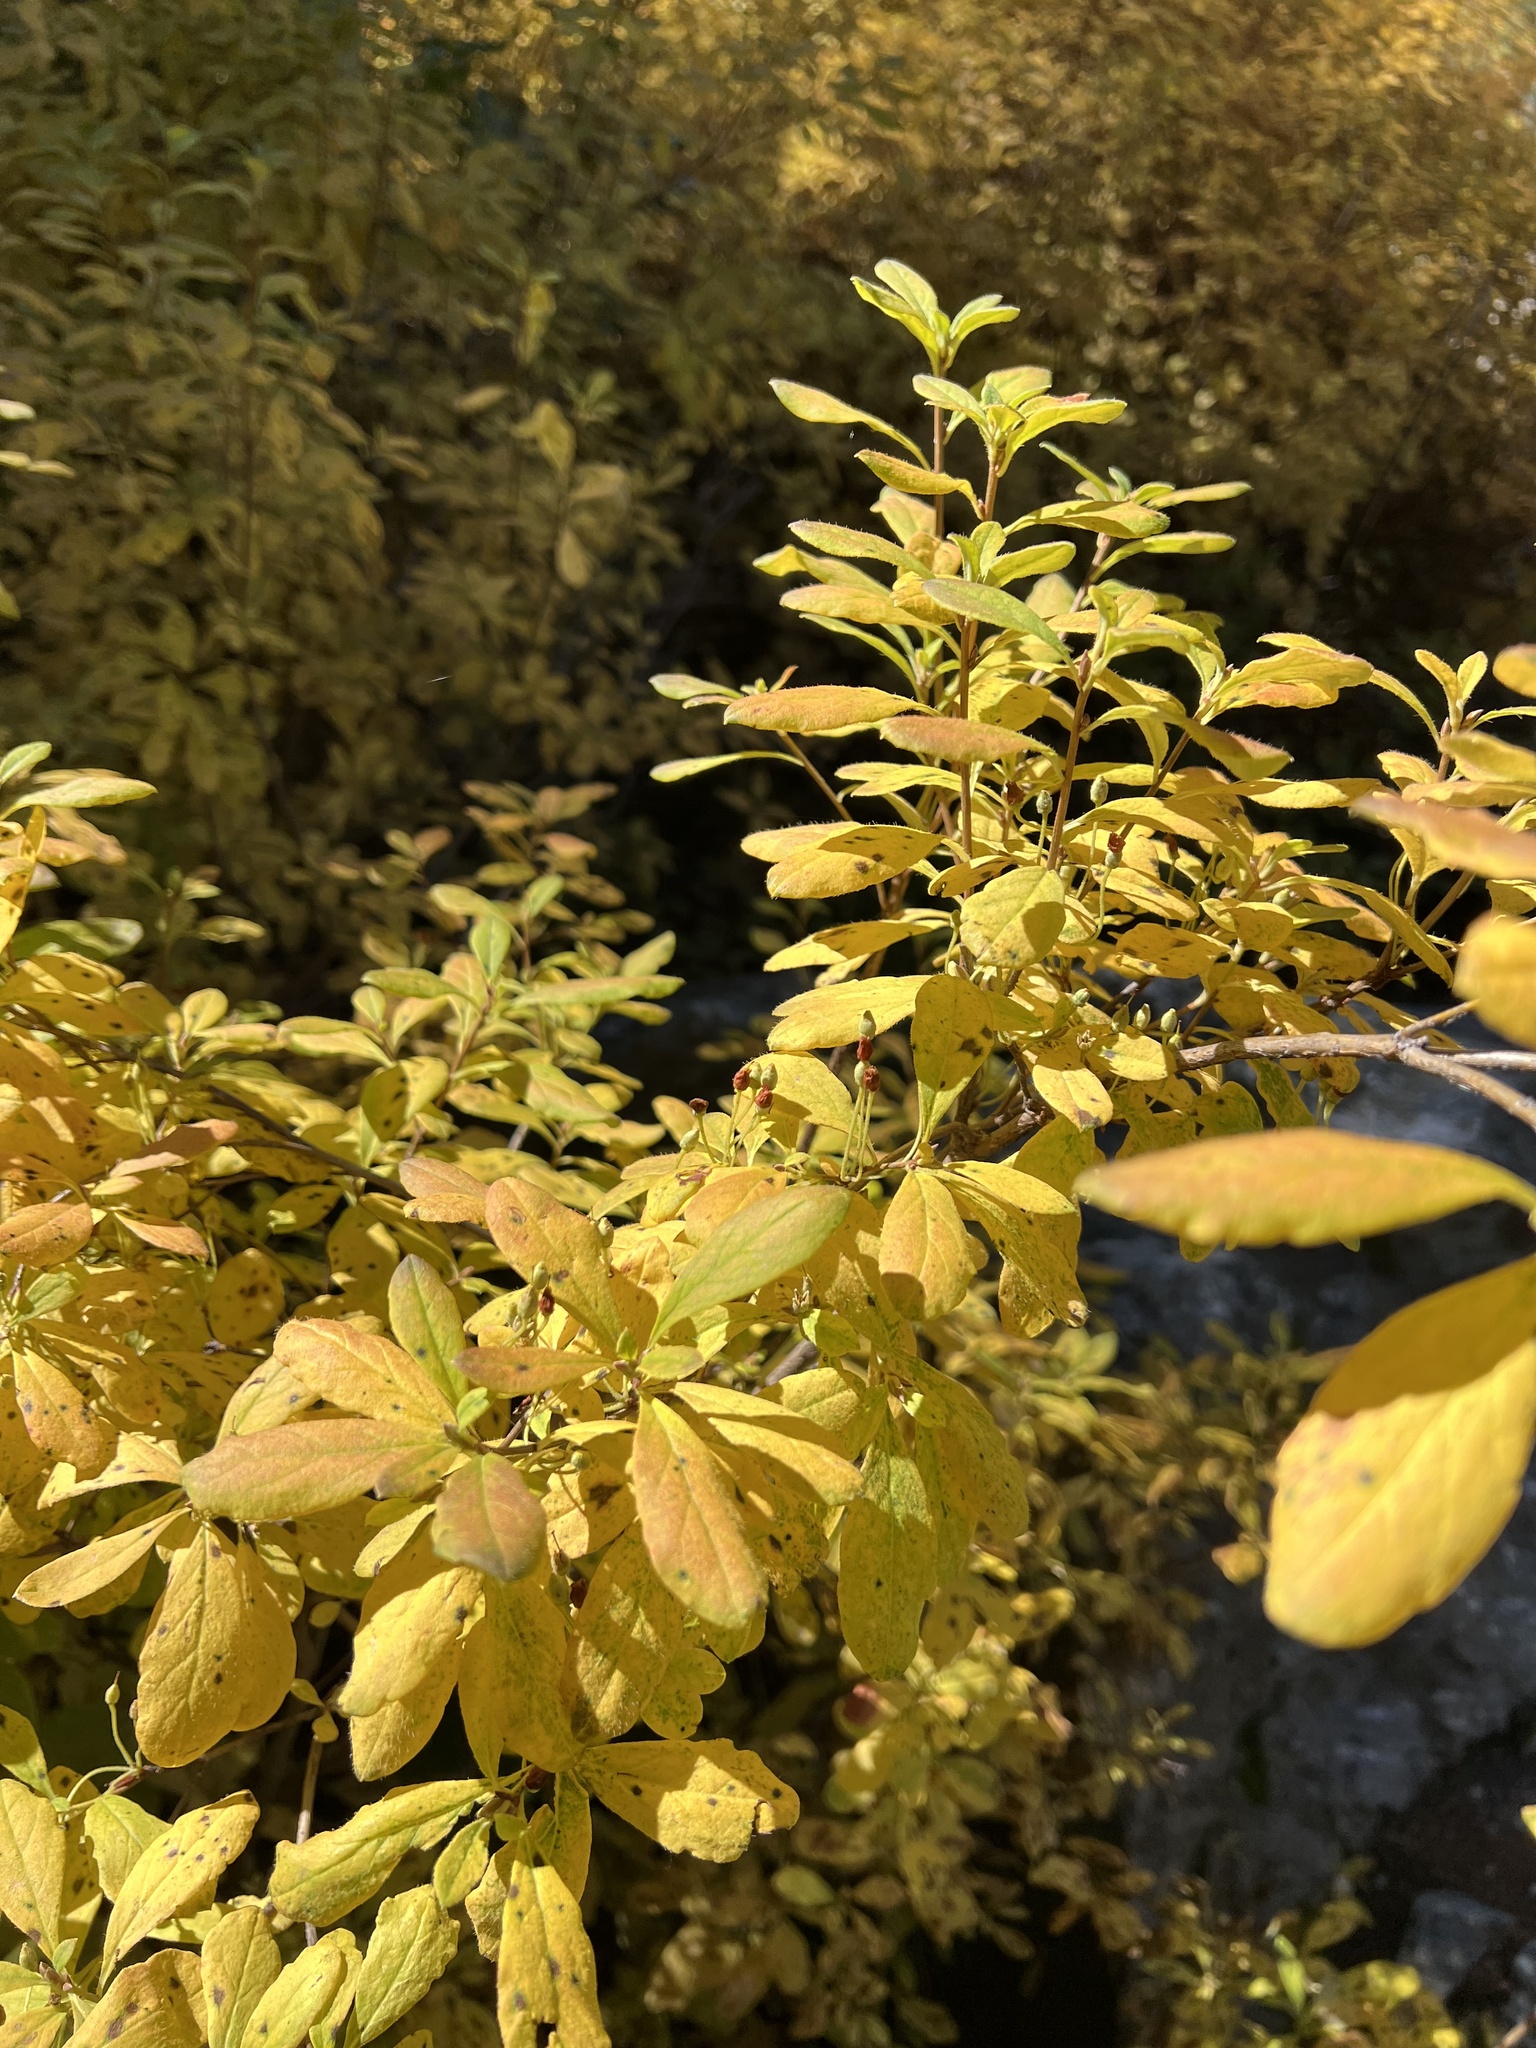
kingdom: Plantae
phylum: Tracheophyta
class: Magnoliopsida
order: Ericales
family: Ericaceae
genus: Rhododendron
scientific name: Rhododendron menziesii
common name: Pacific menziesia
